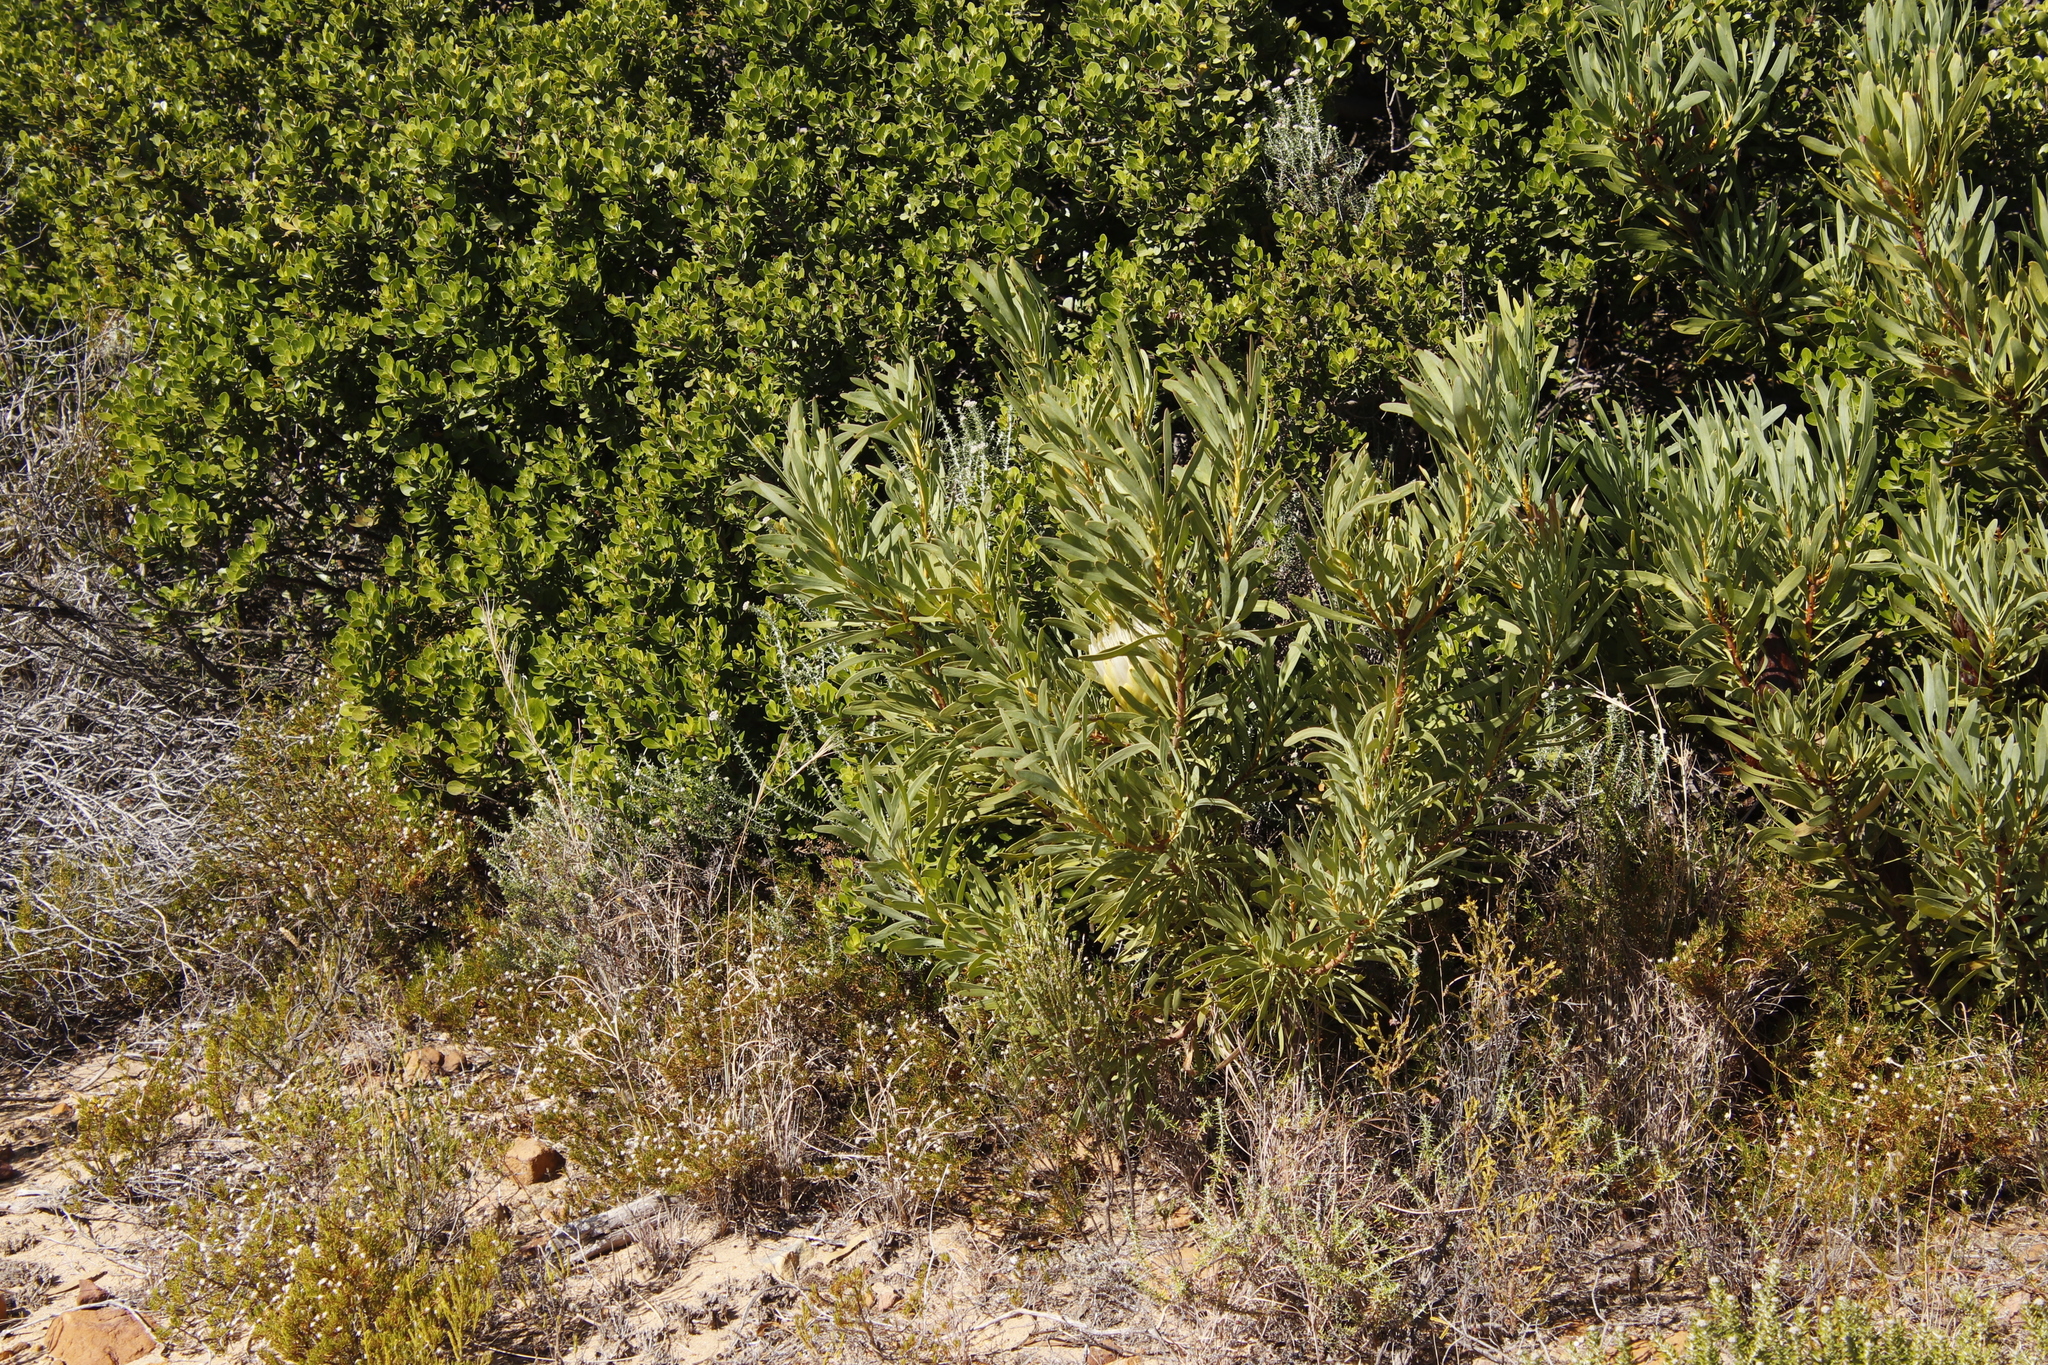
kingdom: Plantae
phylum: Tracheophyta
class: Magnoliopsida
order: Proteales
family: Proteaceae
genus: Protea
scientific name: Protea repens
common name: Sugarbush
